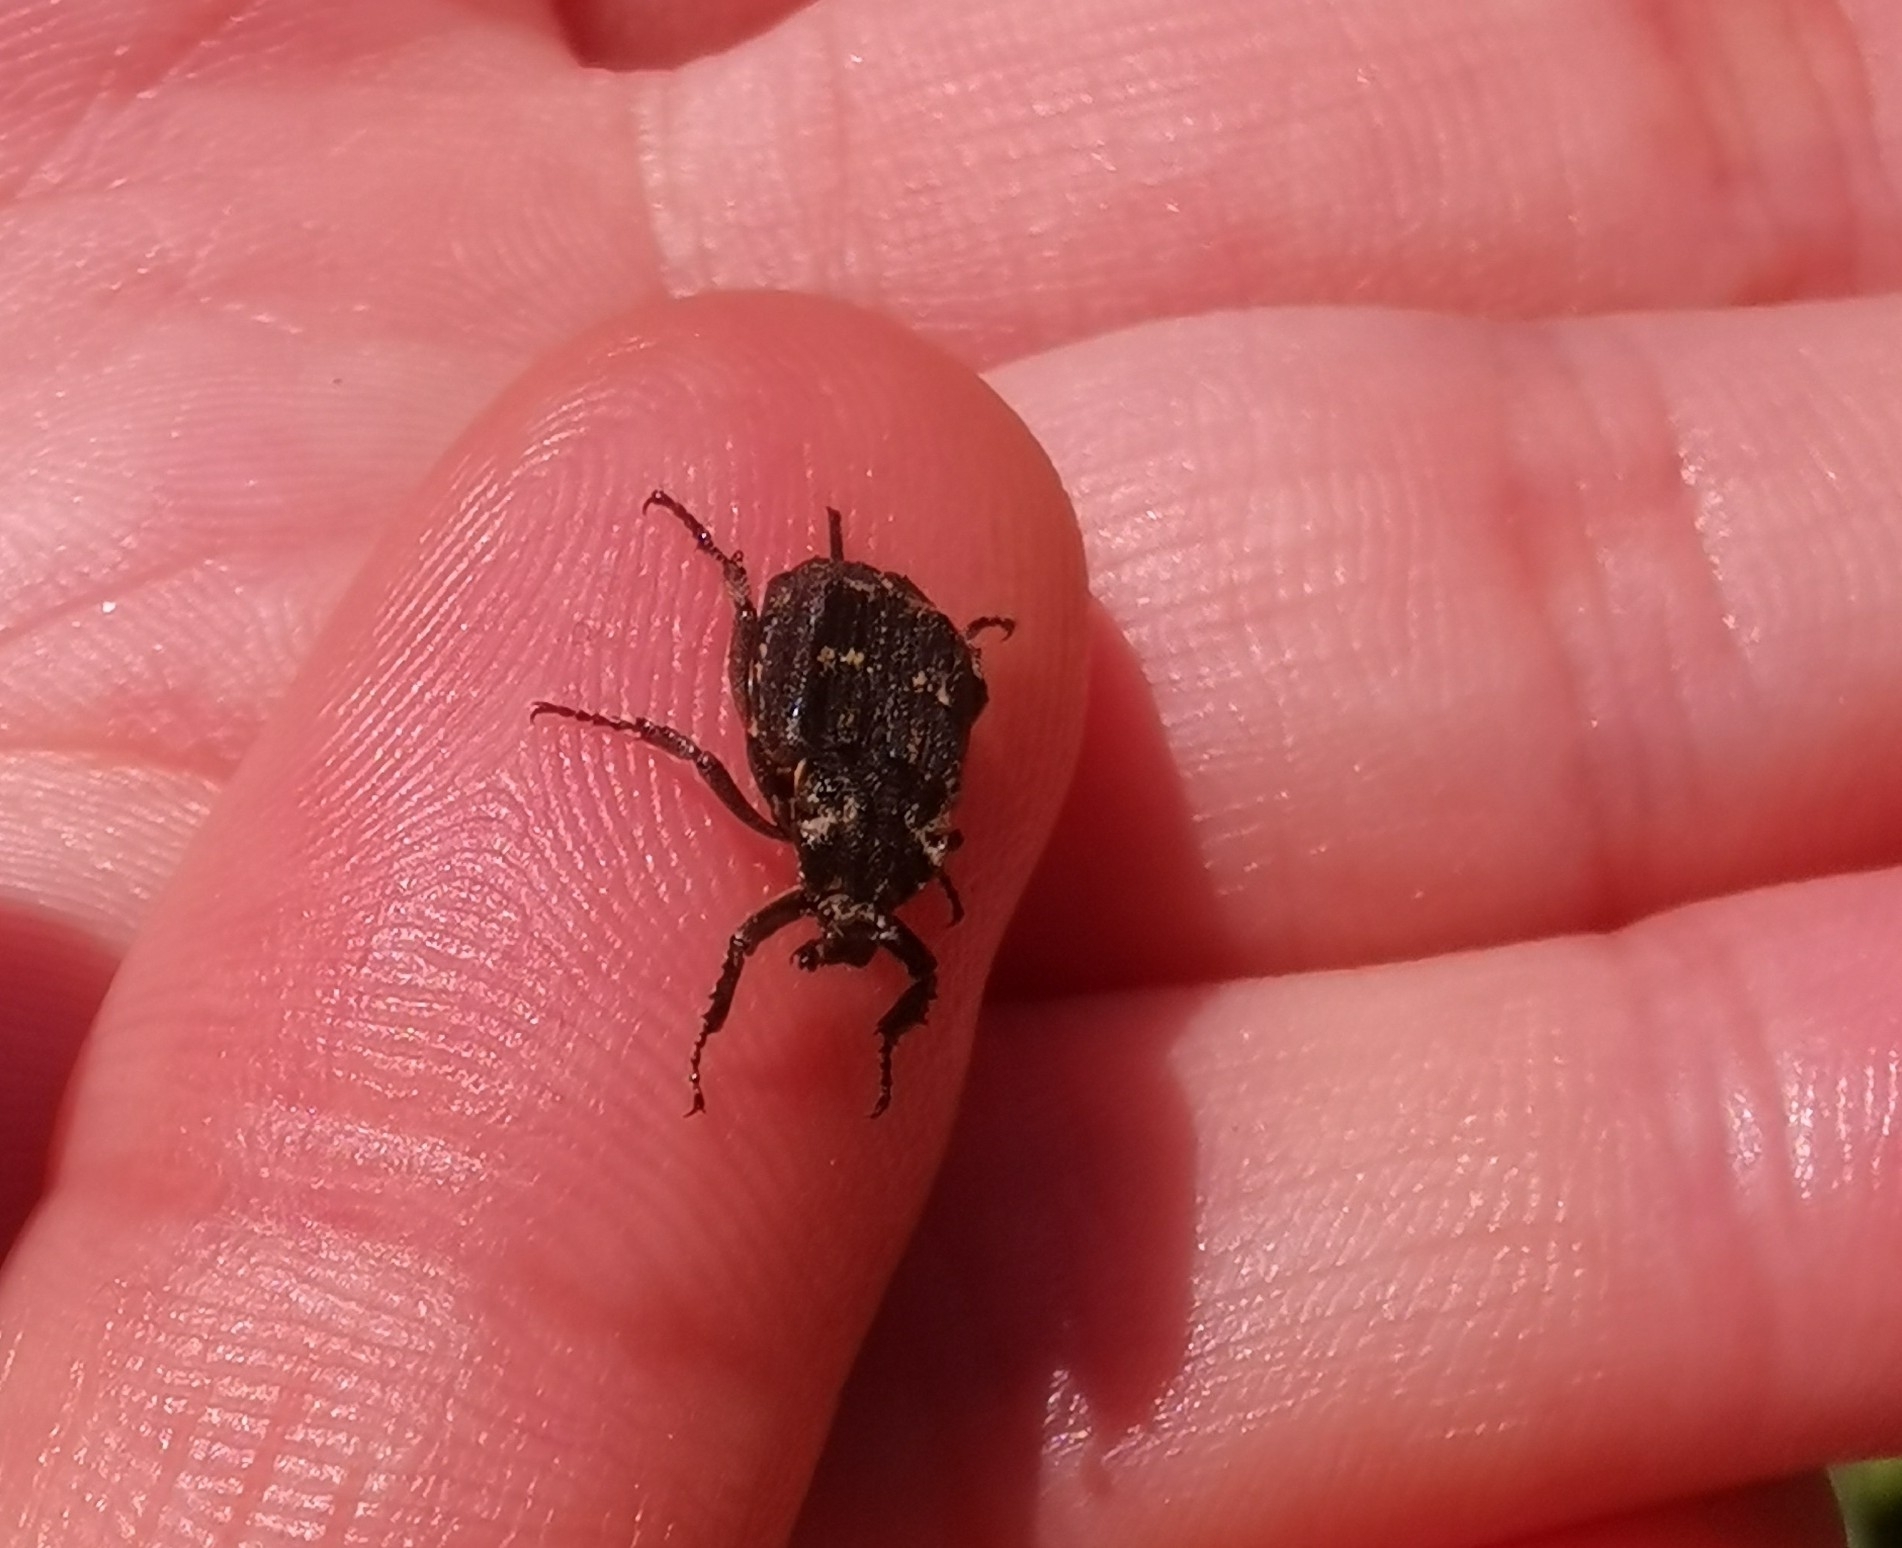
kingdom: Animalia
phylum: Arthropoda
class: Insecta
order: Coleoptera
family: Scarabaeidae
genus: Valgus
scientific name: Valgus hemipterus
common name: Bug flower chafer
